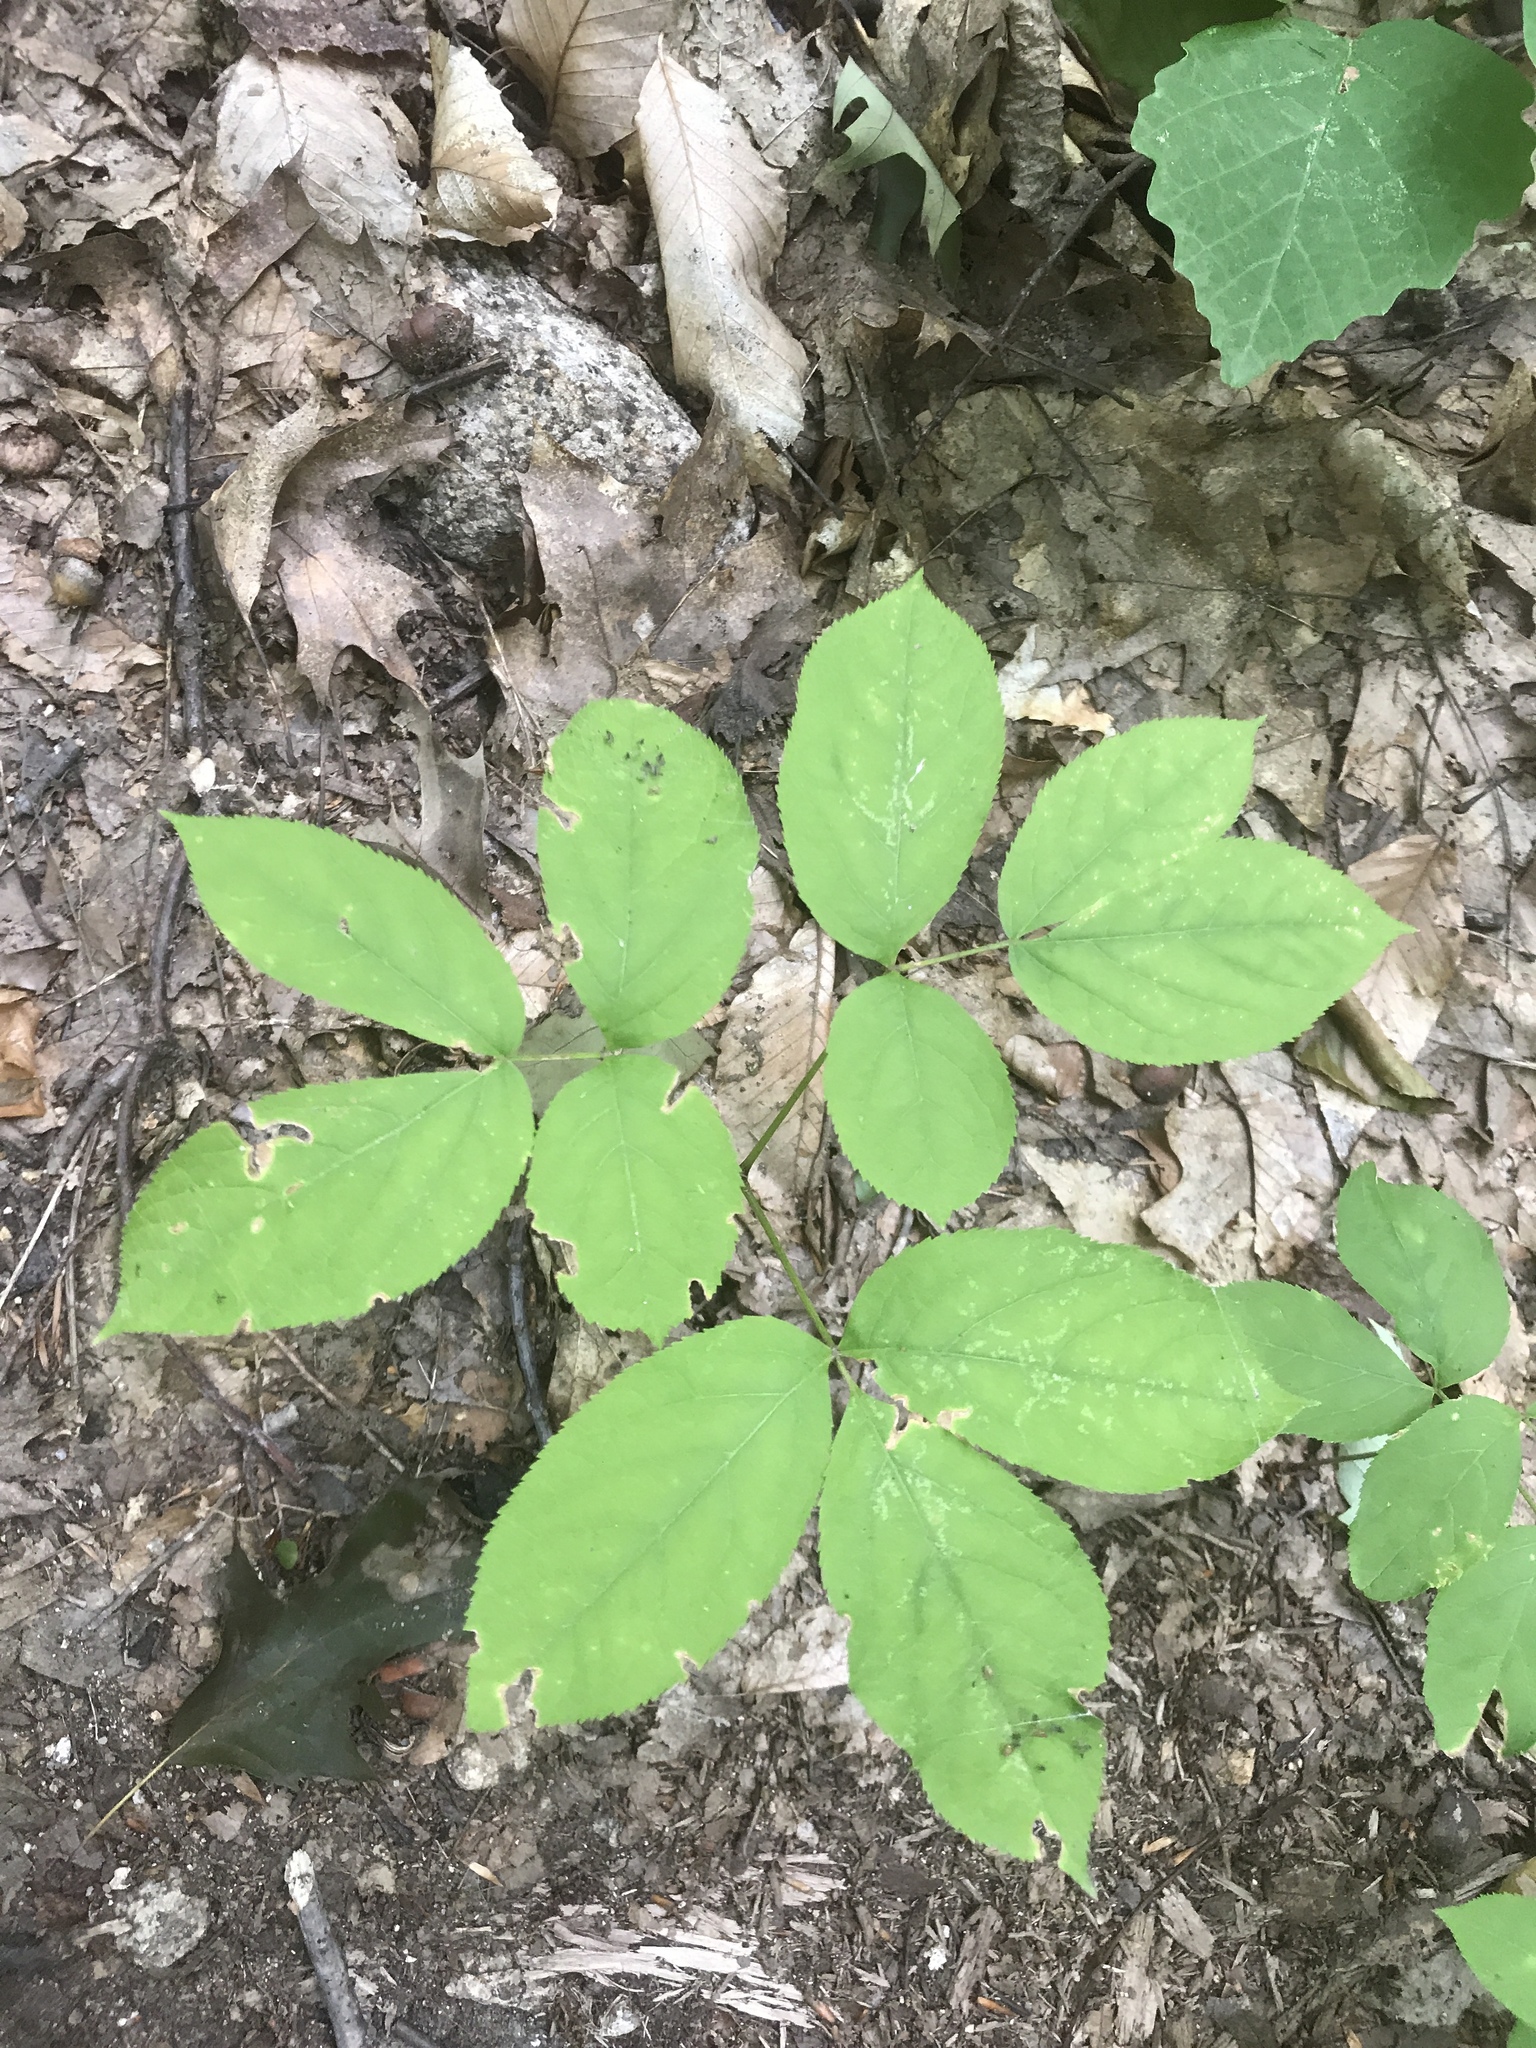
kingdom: Plantae
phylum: Tracheophyta
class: Magnoliopsida
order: Apiales
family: Araliaceae
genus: Aralia
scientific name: Aralia nudicaulis
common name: Wild sarsaparilla
